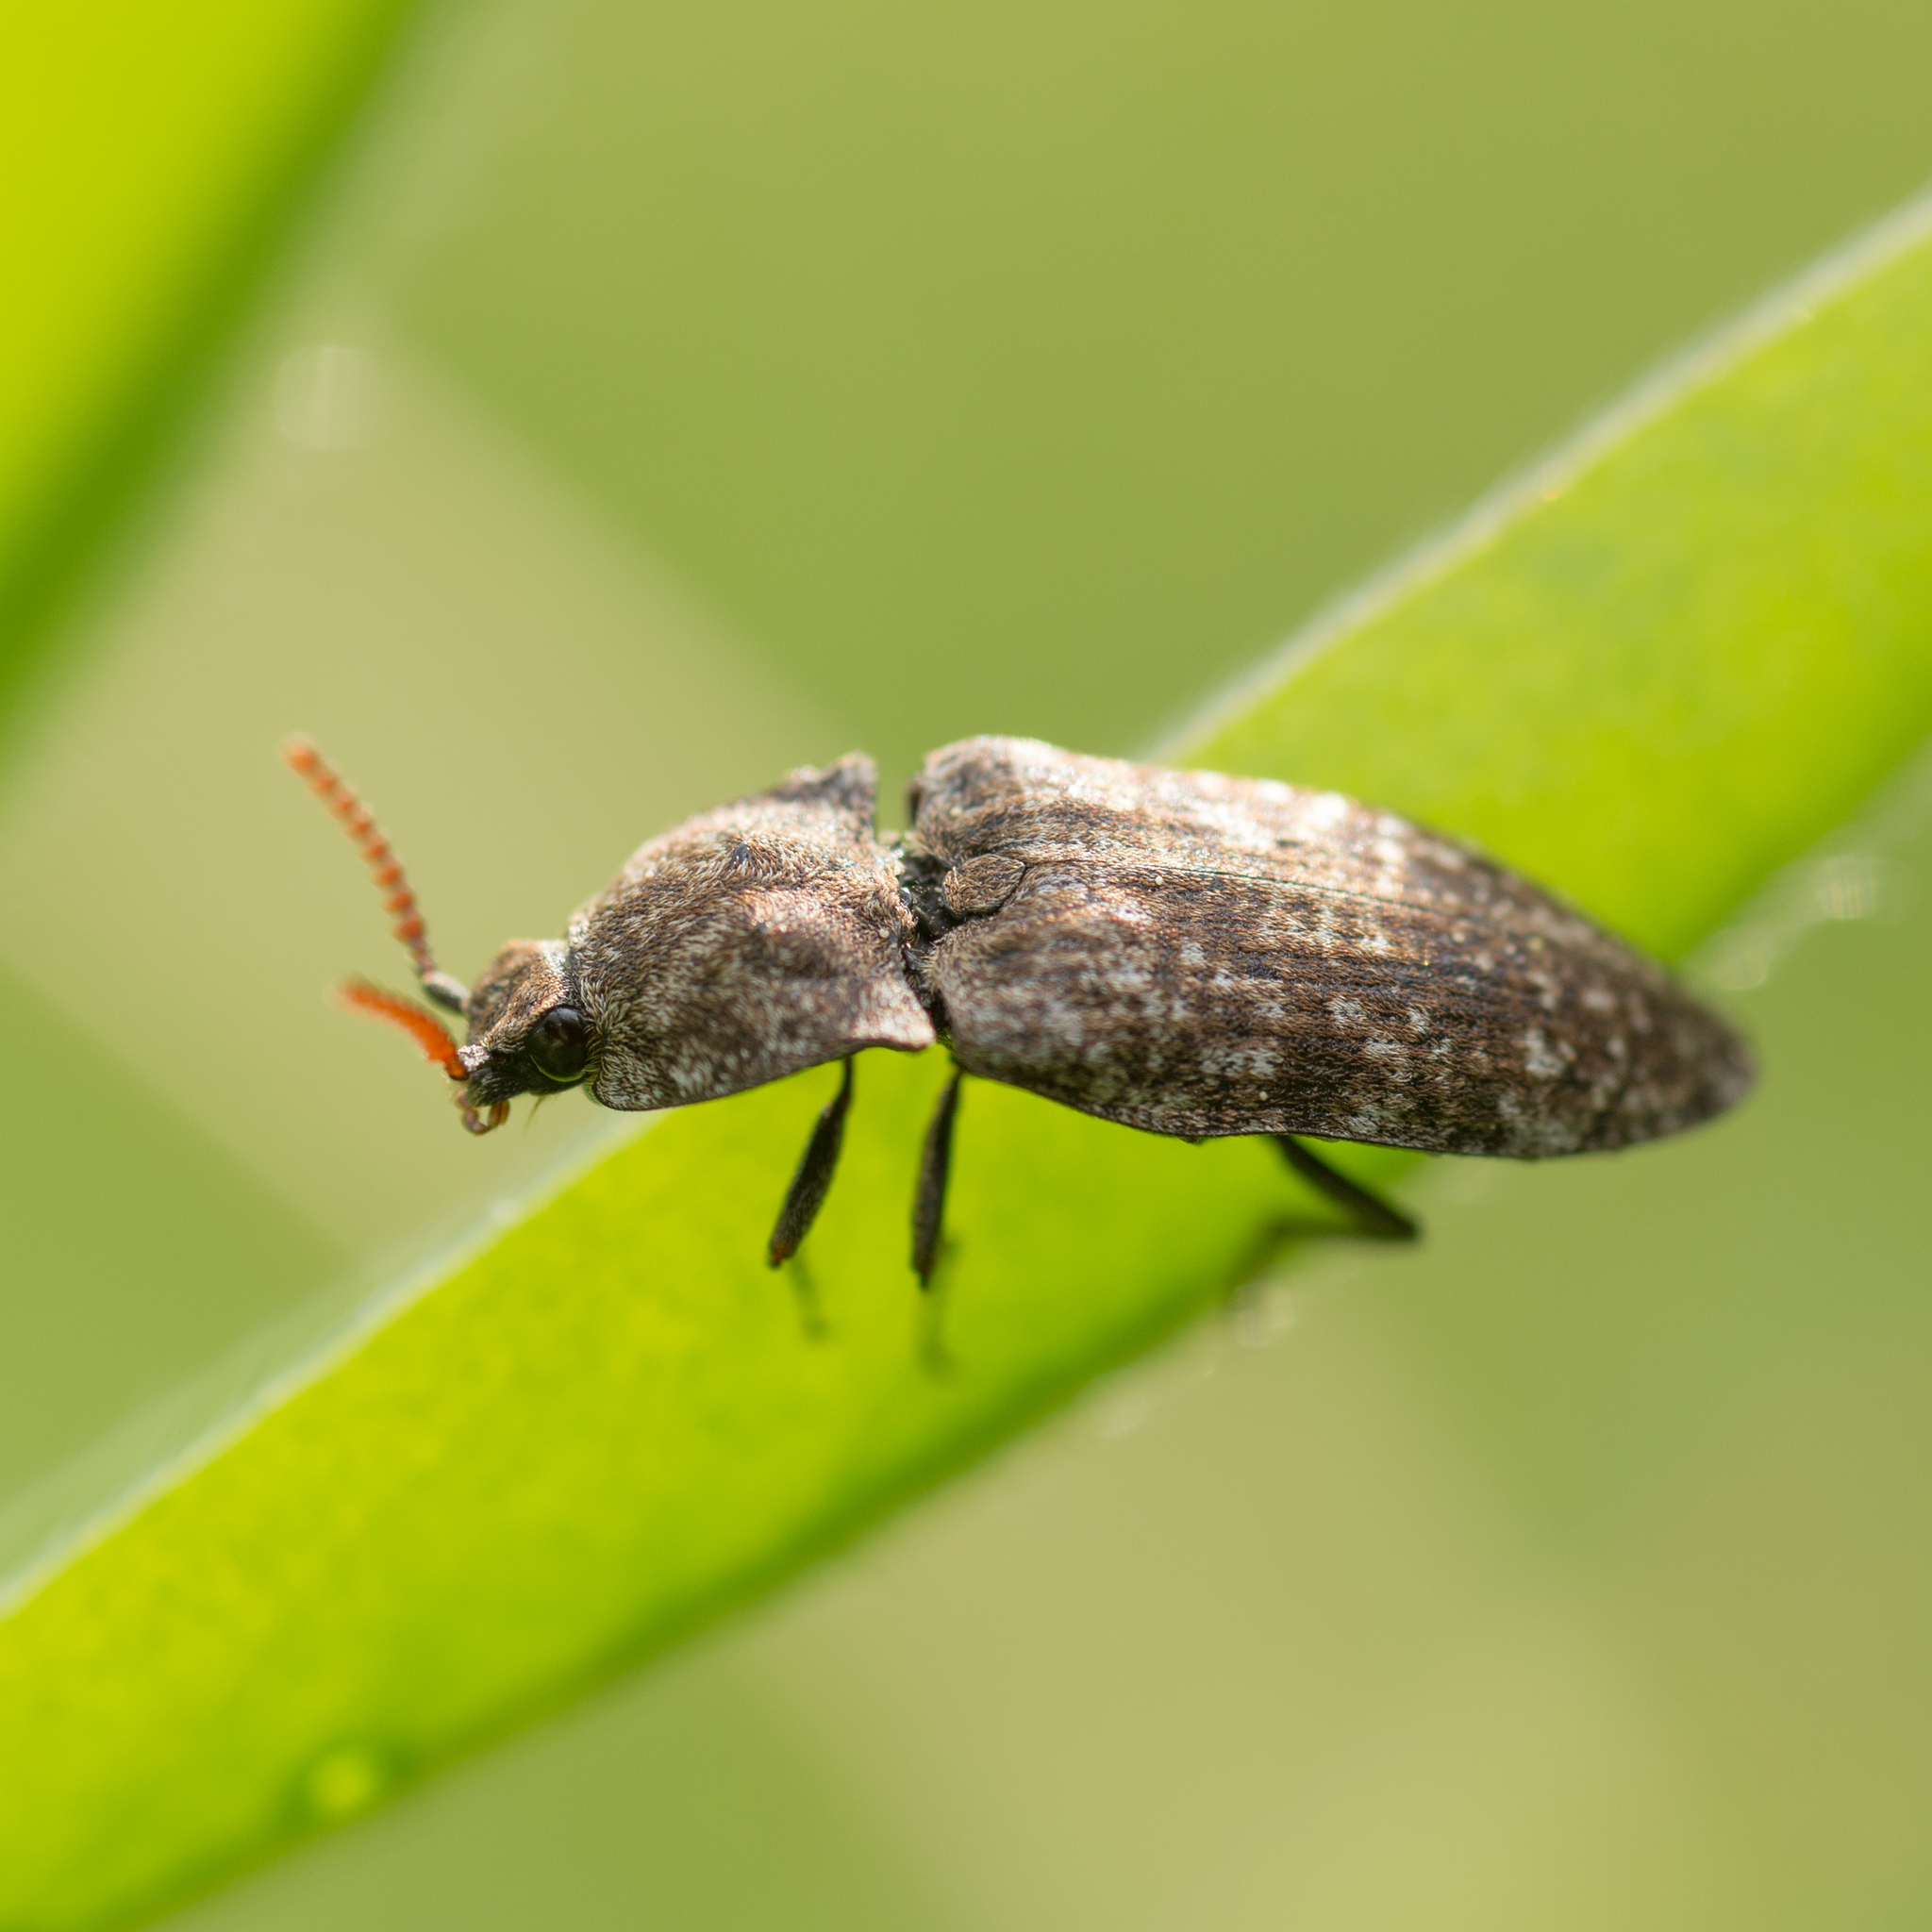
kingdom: Animalia
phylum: Arthropoda
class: Insecta
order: Coleoptera
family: Elateridae
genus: Agrypnus
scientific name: Agrypnus murinus
